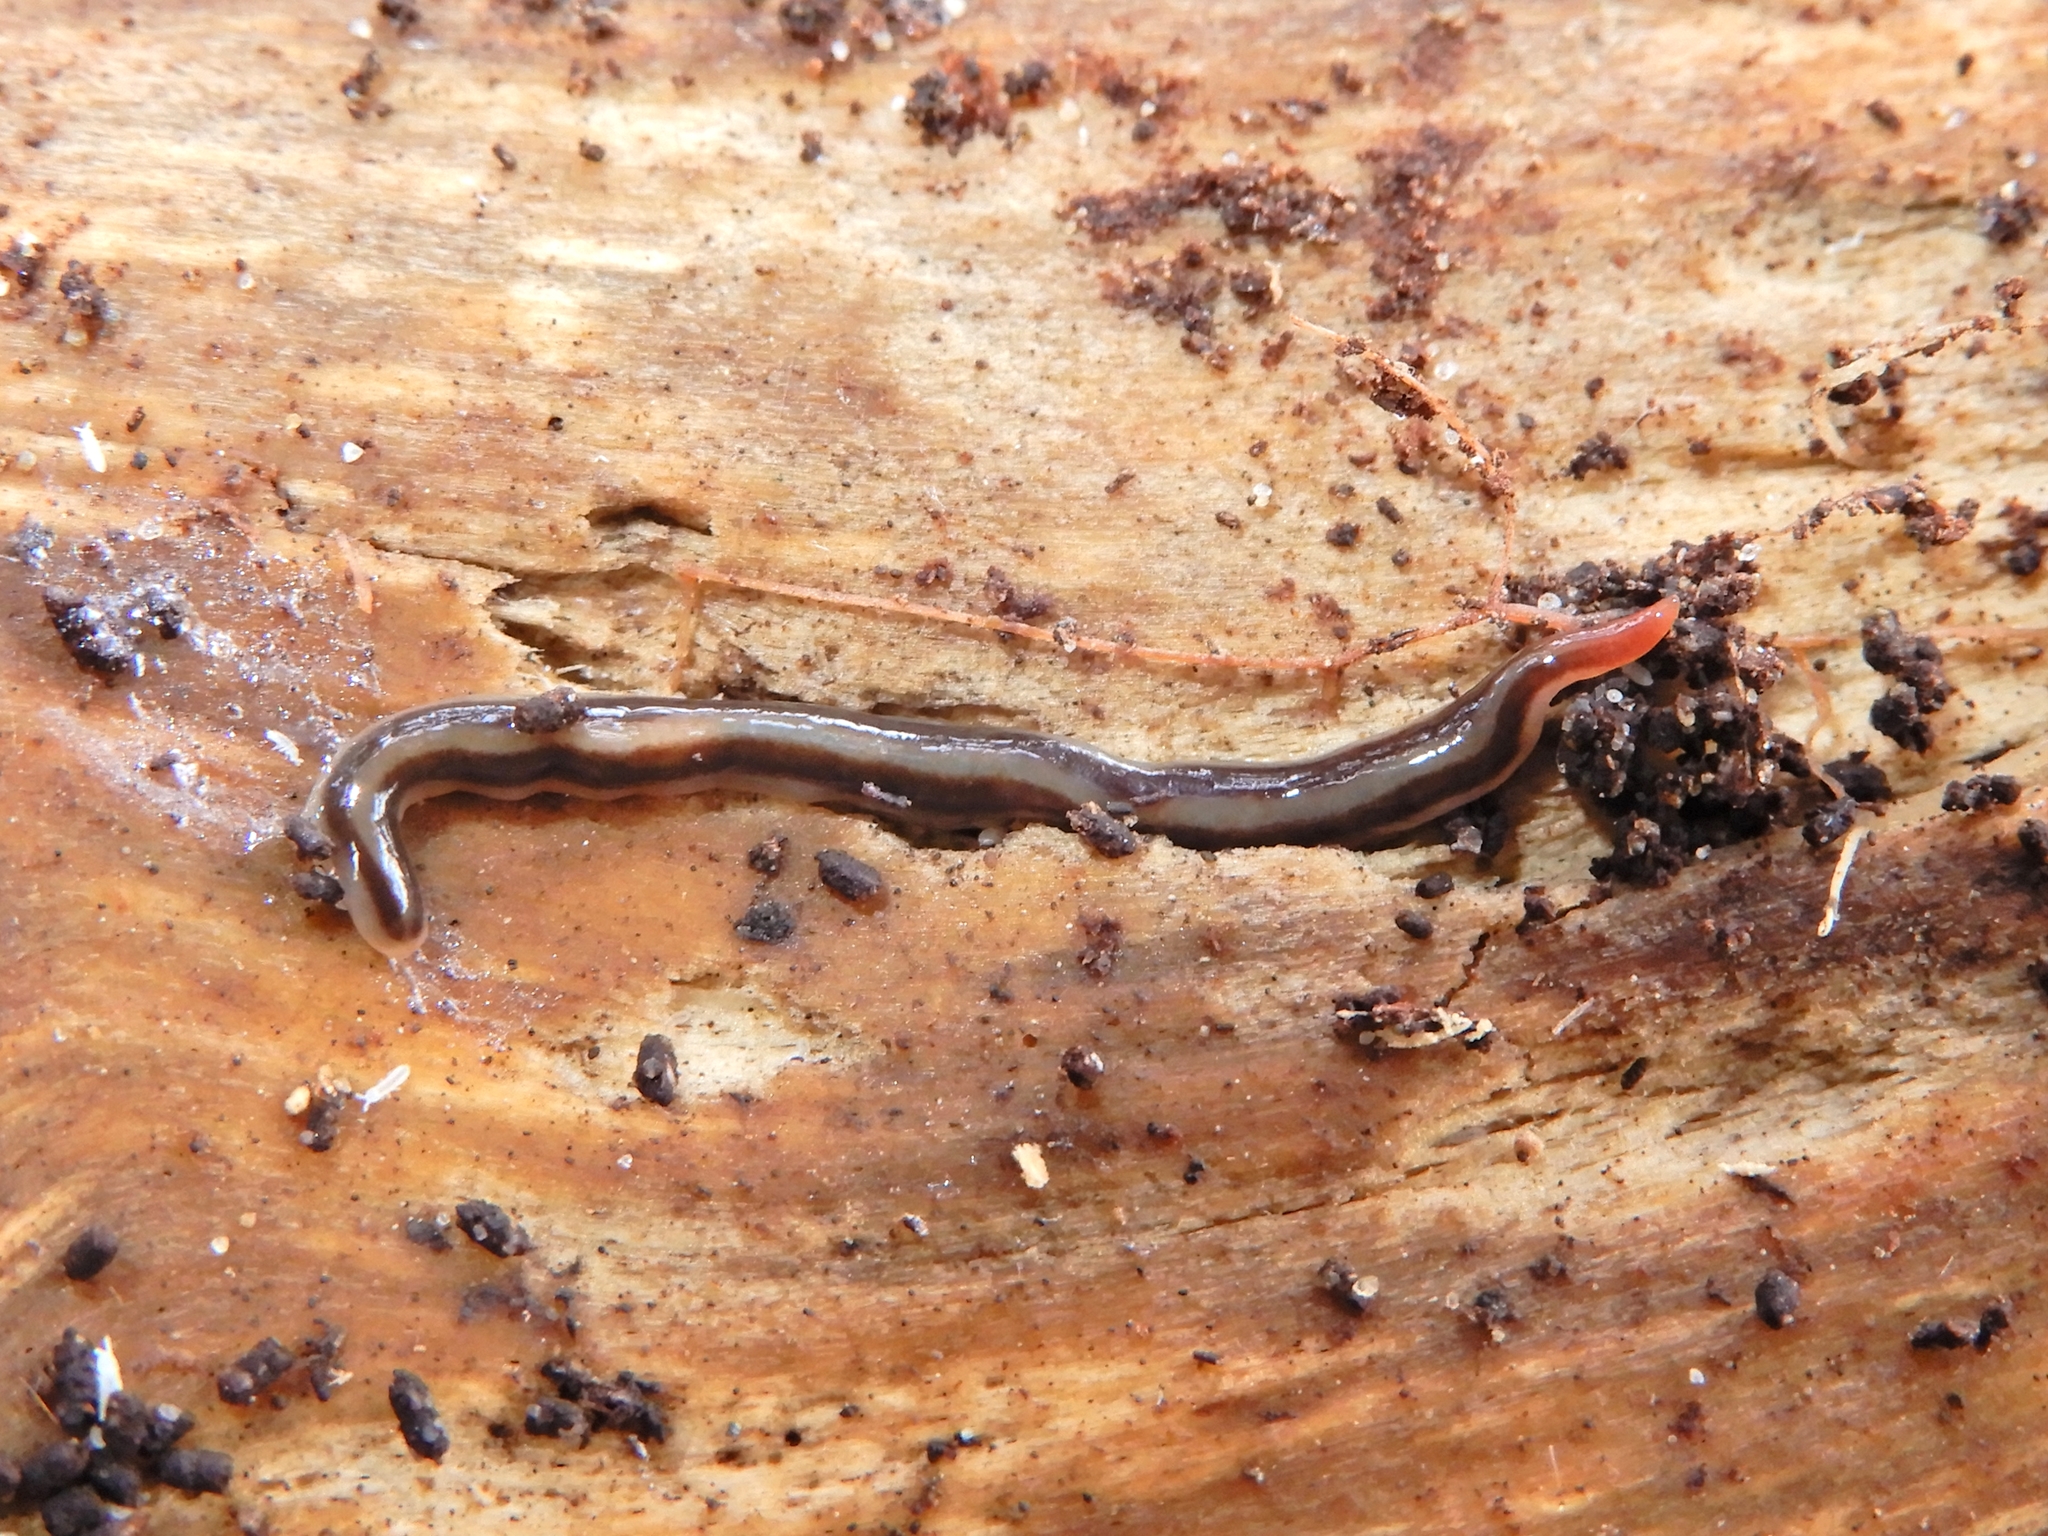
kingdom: Animalia
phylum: Platyhelminthes
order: Tricladida
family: Geoplanidae
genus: Australopacifica
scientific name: Australopacifica alfordensis
